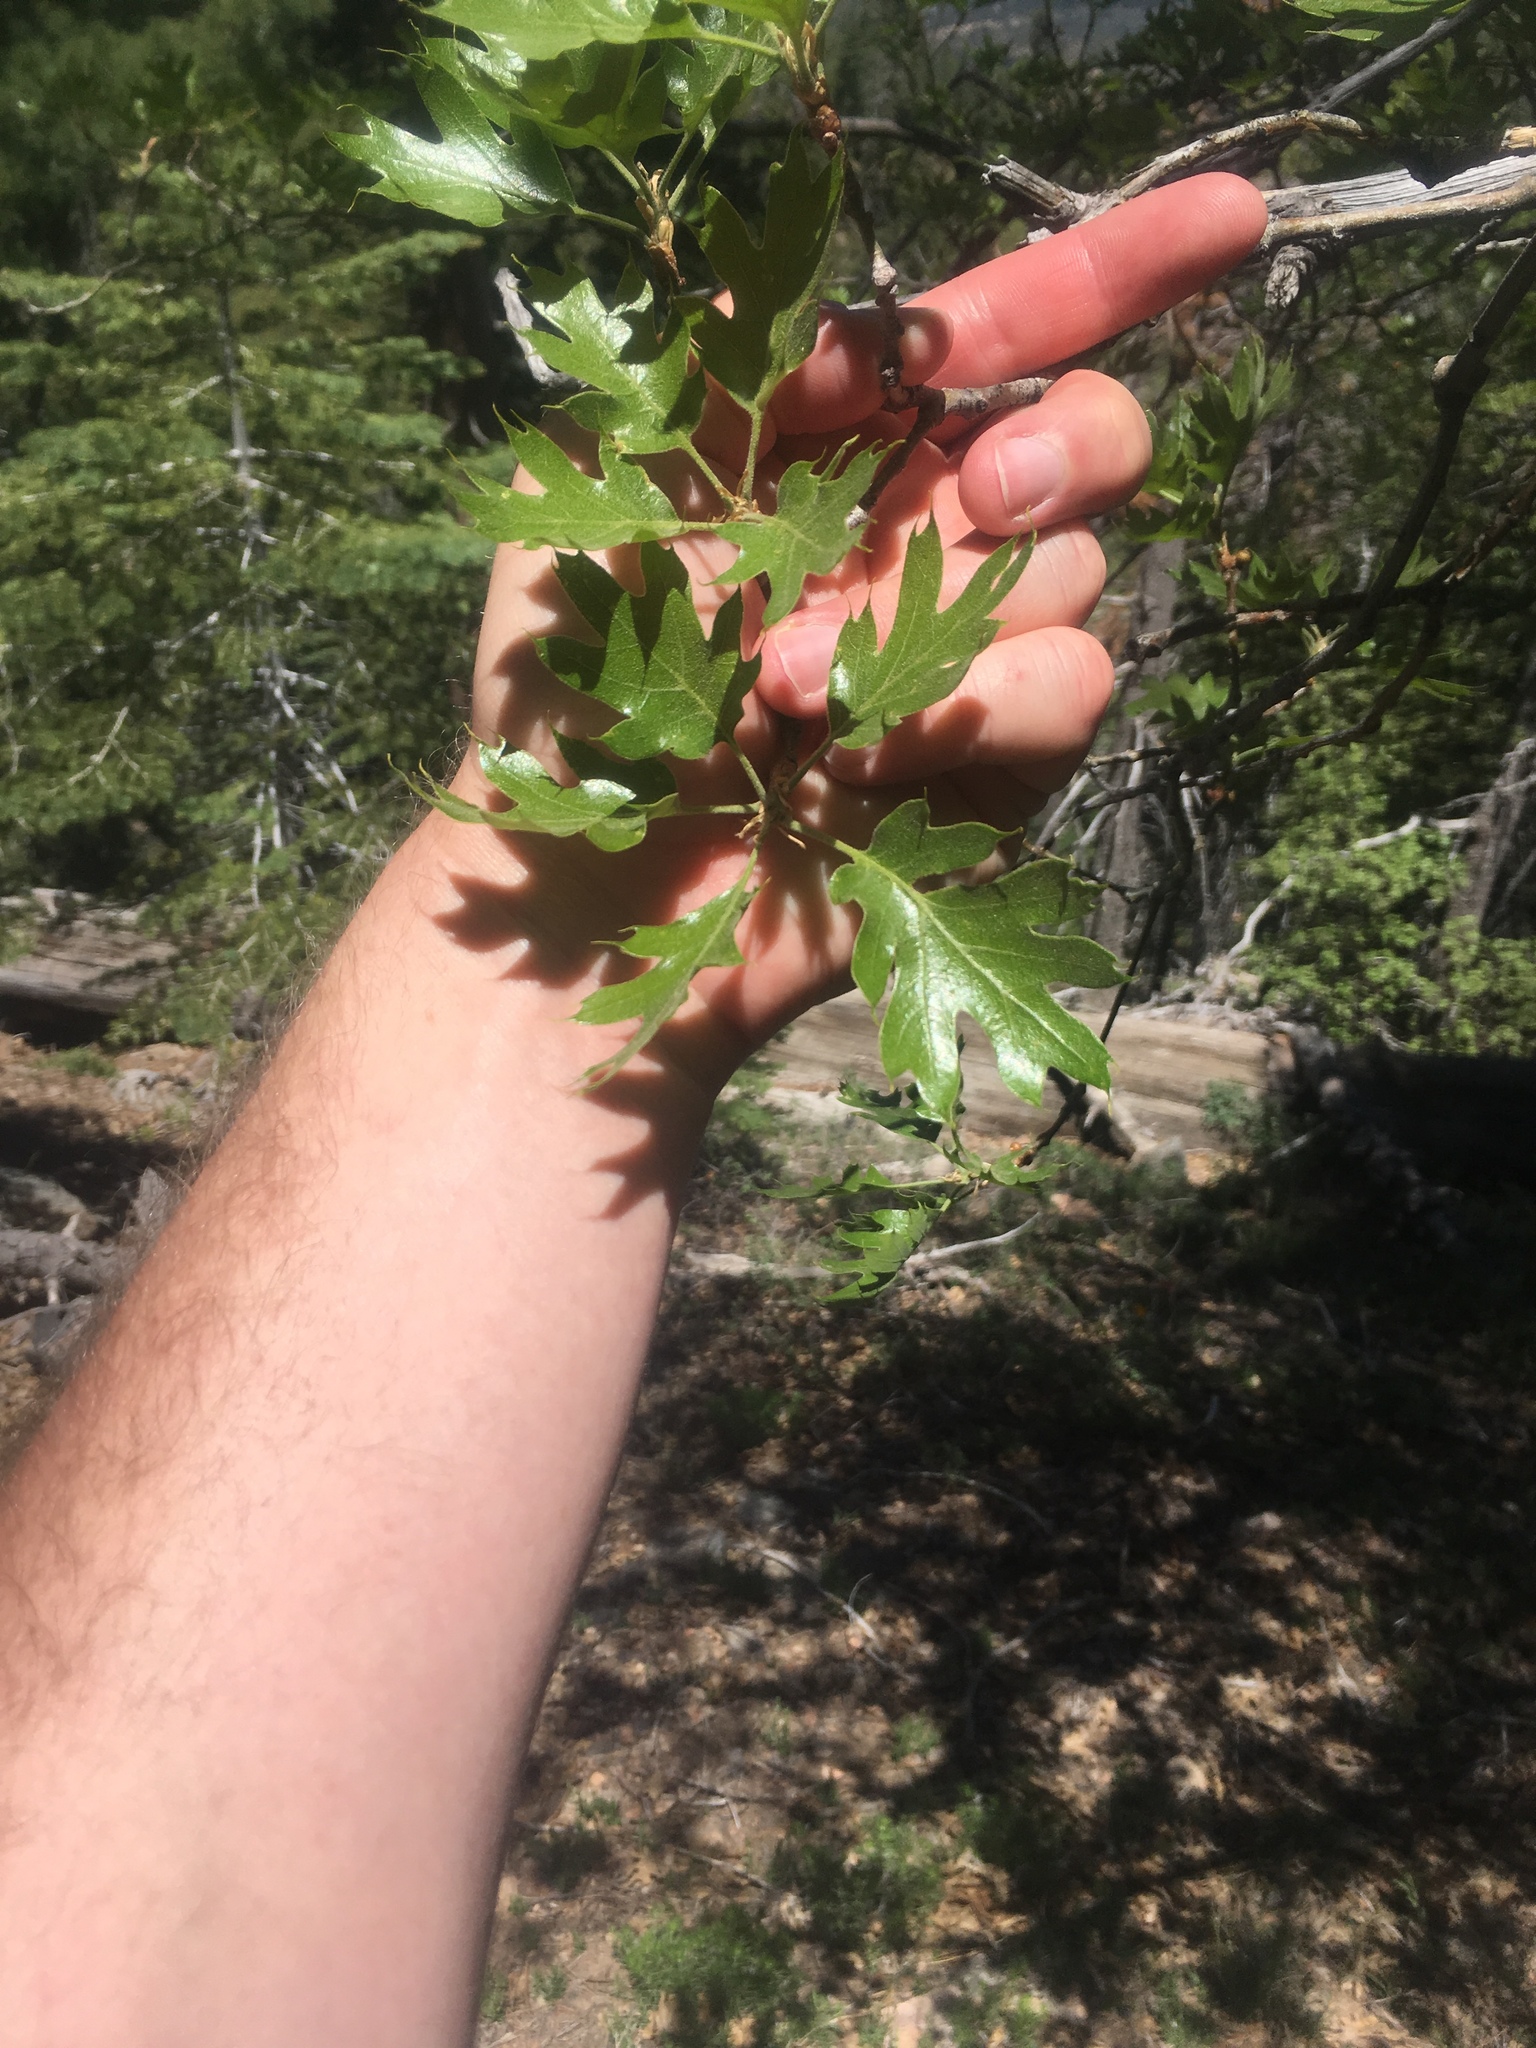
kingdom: Plantae
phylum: Tracheophyta
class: Magnoliopsida
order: Fagales
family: Fagaceae
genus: Quercus
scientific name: Quercus kelloggii
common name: California black oak
